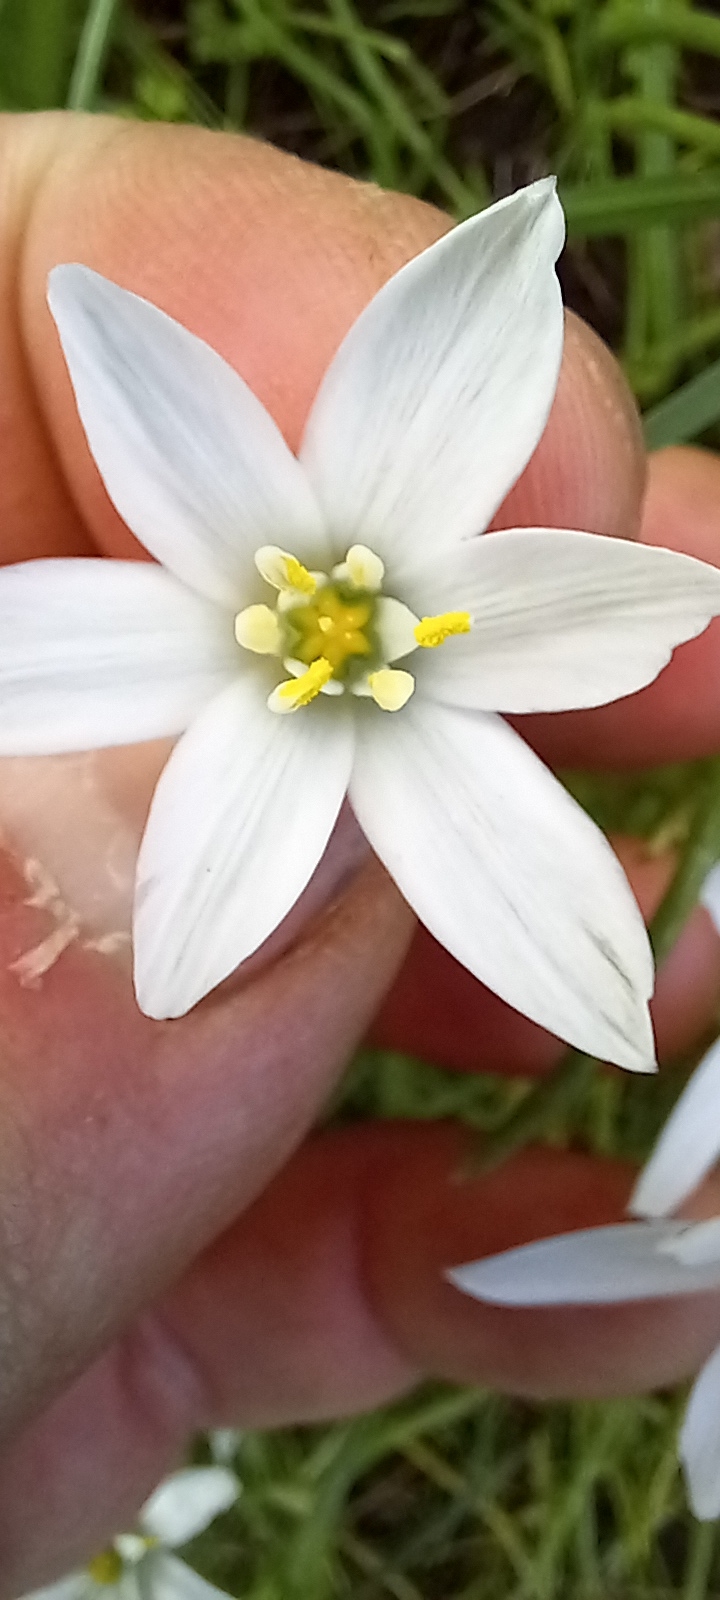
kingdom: Plantae
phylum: Tracheophyta
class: Liliopsida
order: Asparagales
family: Asparagaceae
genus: Ornithogalum
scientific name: Ornithogalum umbellatum
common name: Garden star-of-bethlehem
